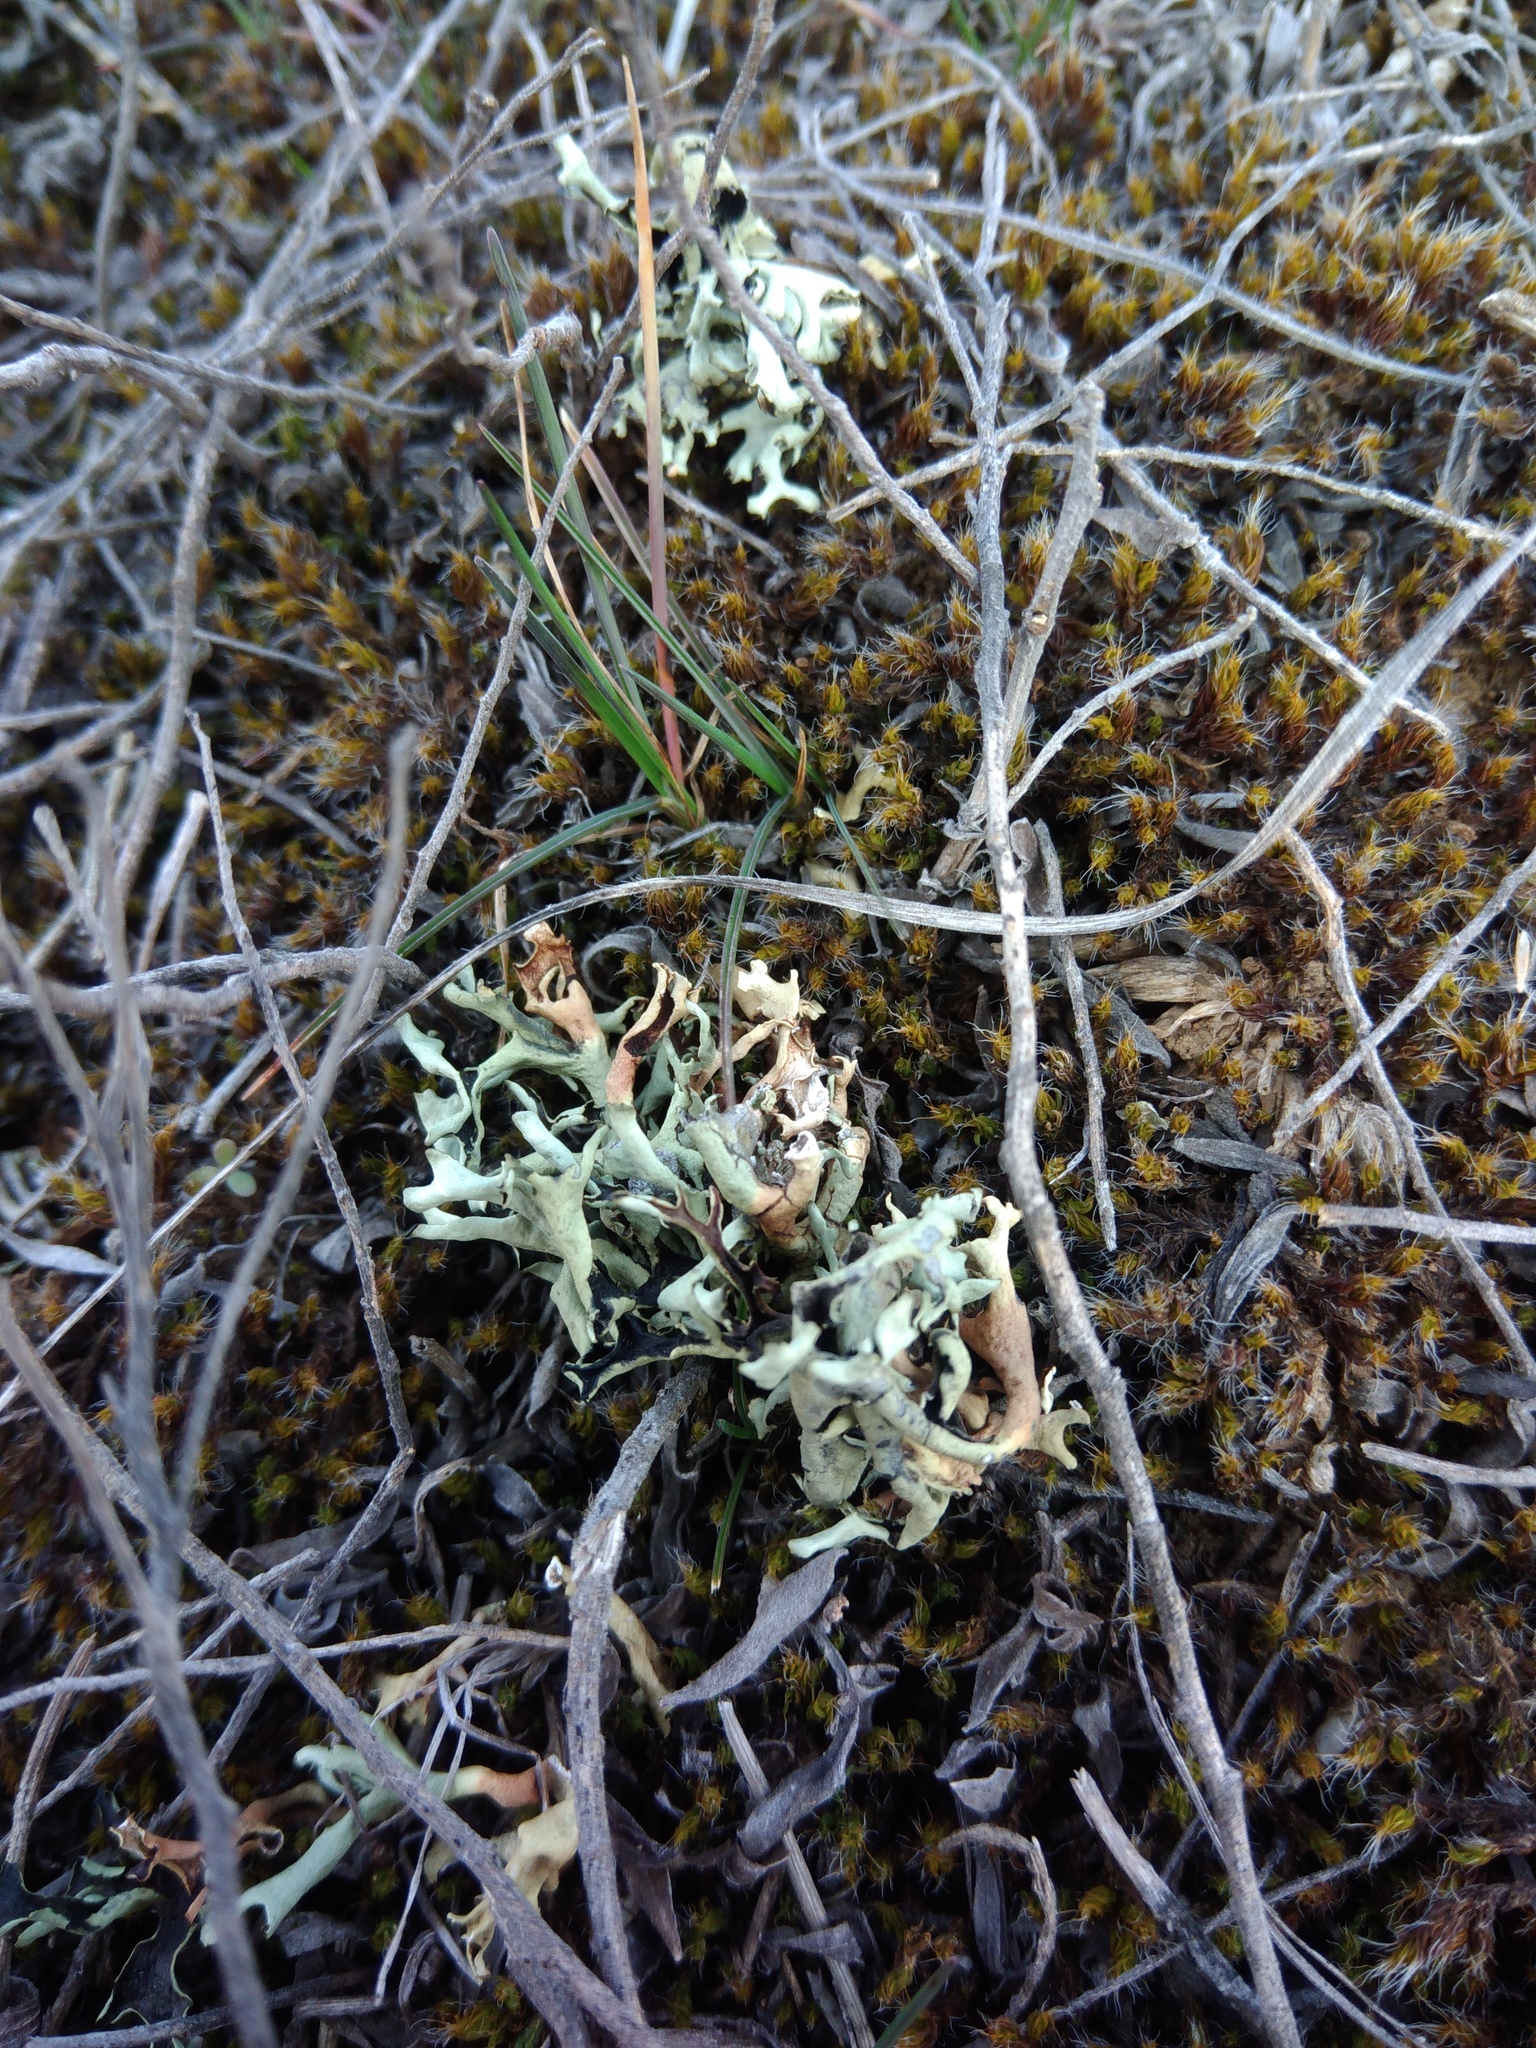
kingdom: Fungi
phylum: Ascomycota
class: Lecanoromycetes
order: Lecanorales
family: Parmeliaceae
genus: Xanthoparmelia
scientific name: Xanthoparmelia camtschadalis
